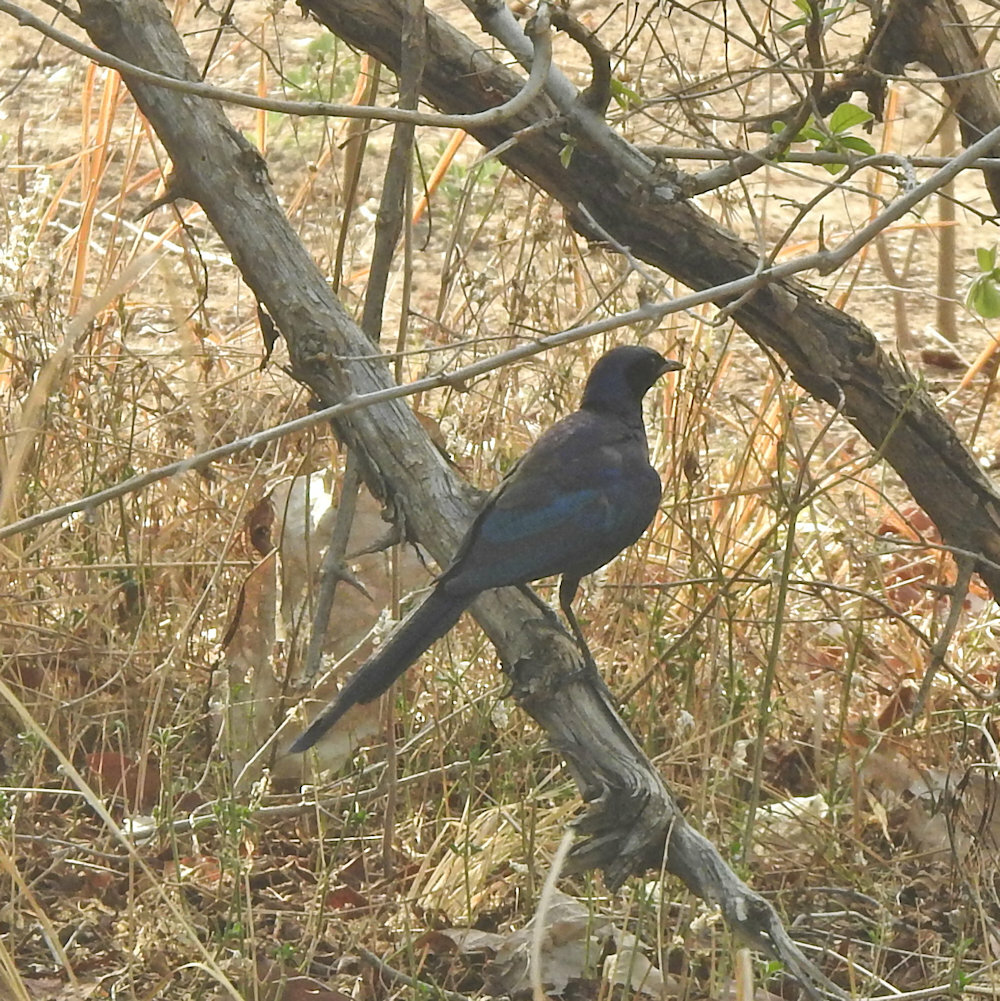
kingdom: Animalia
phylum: Chordata
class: Aves
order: Passeriformes
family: Sturnidae
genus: Lamprotornis
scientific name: Lamprotornis mevesii
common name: Meves's starling
